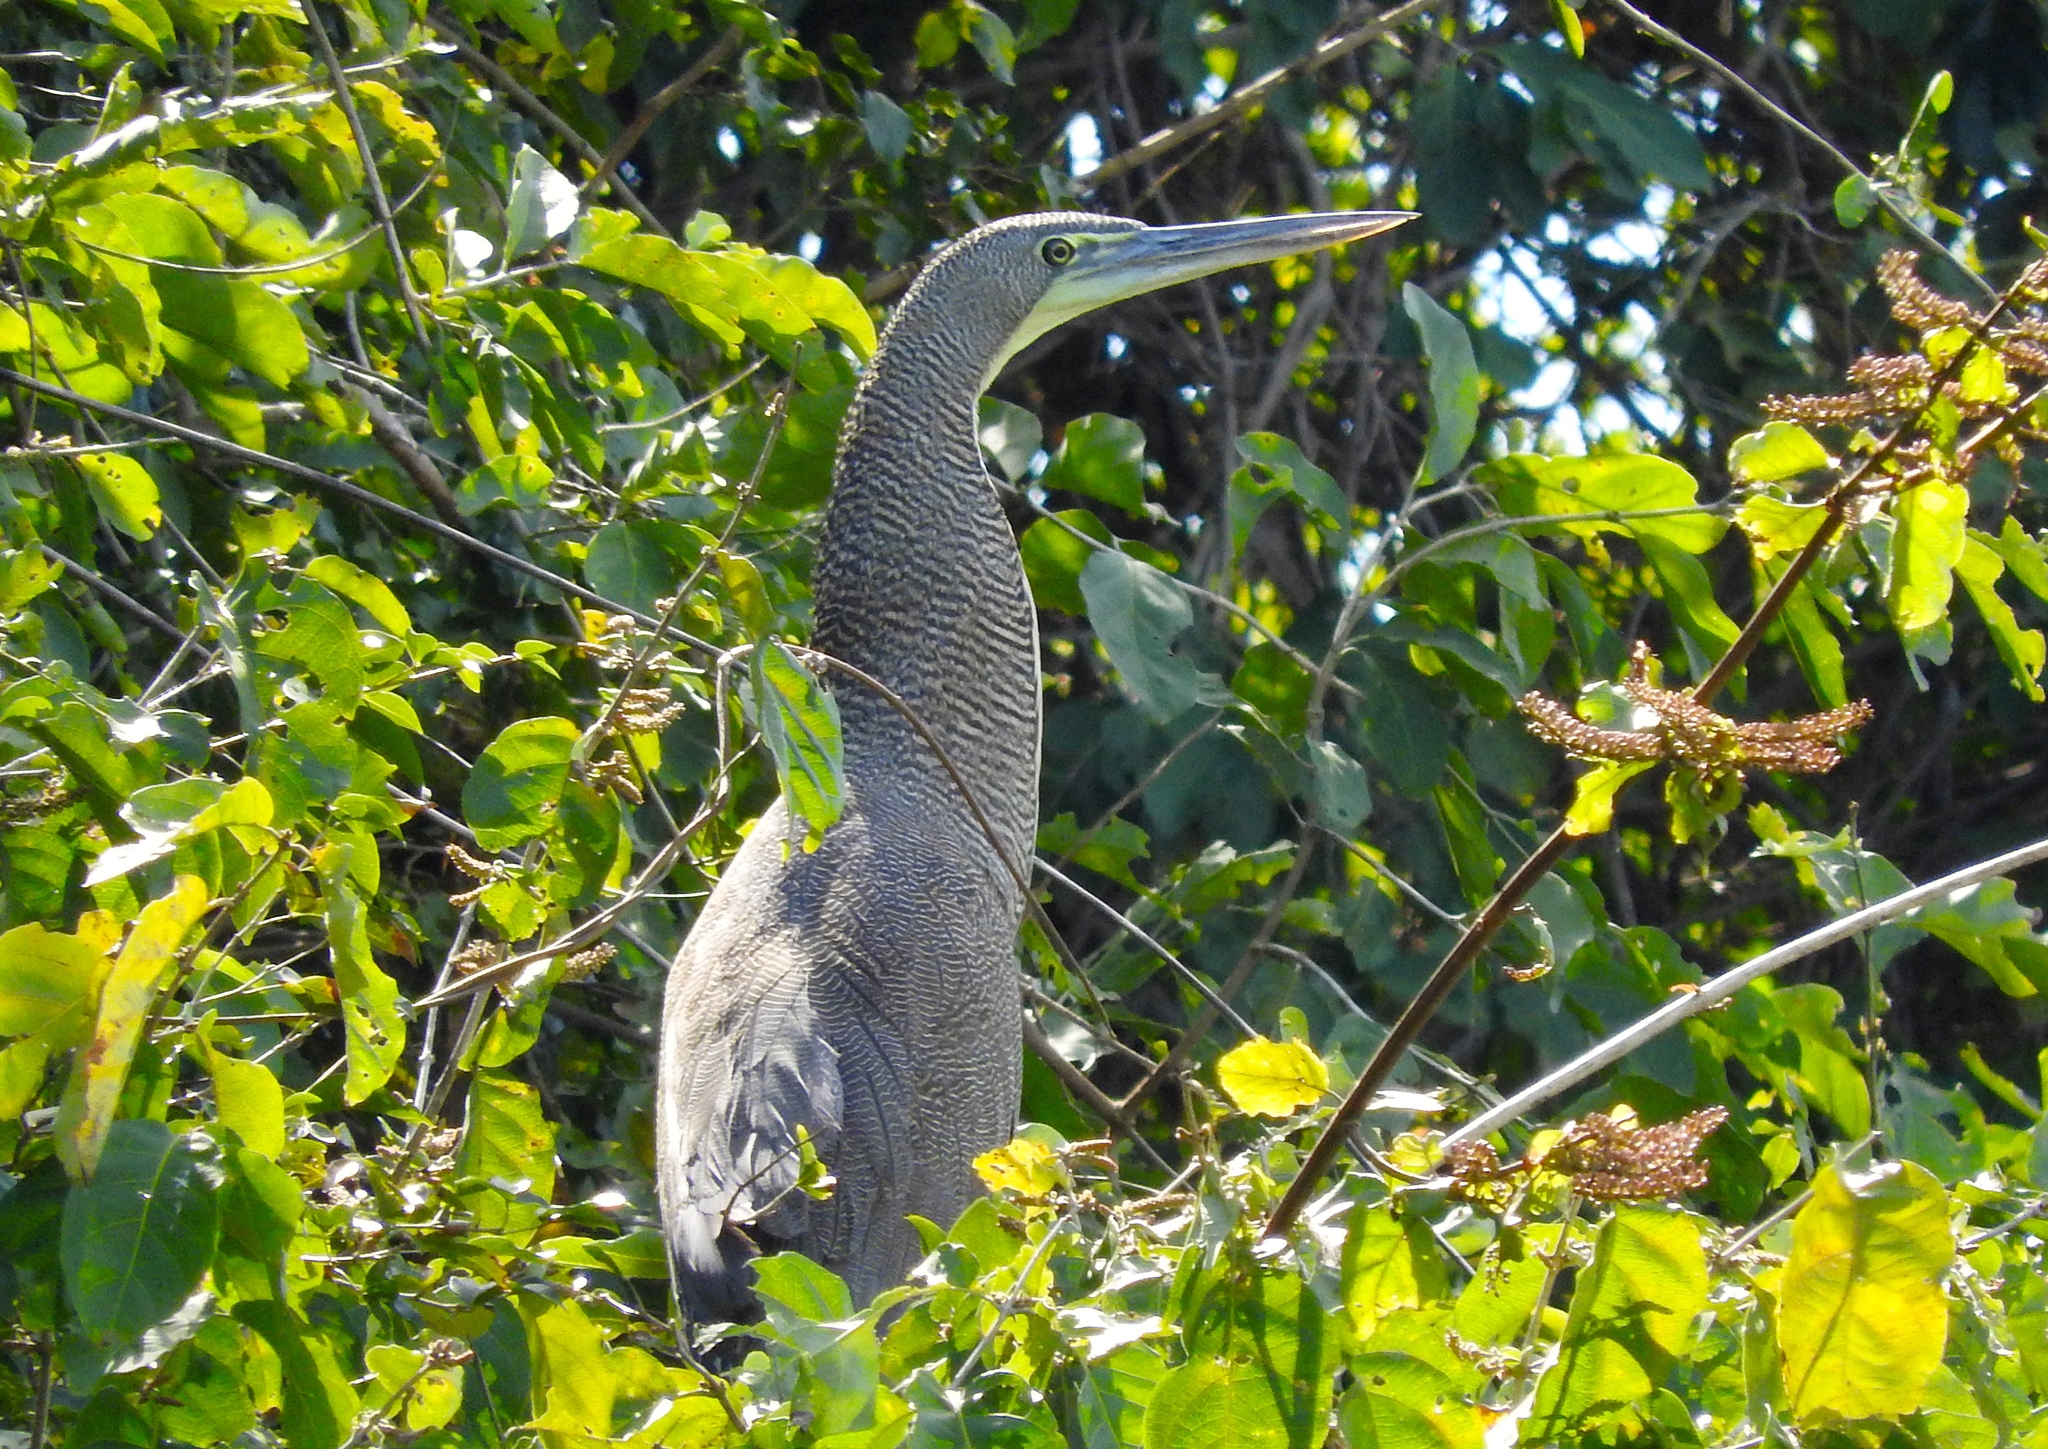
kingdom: Animalia
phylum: Chordata
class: Aves
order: Pelecaniformes
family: Ardeidae
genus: Tigrisoma
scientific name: Tigrisoma mexicanum
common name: Bare-throated tiger-heron
